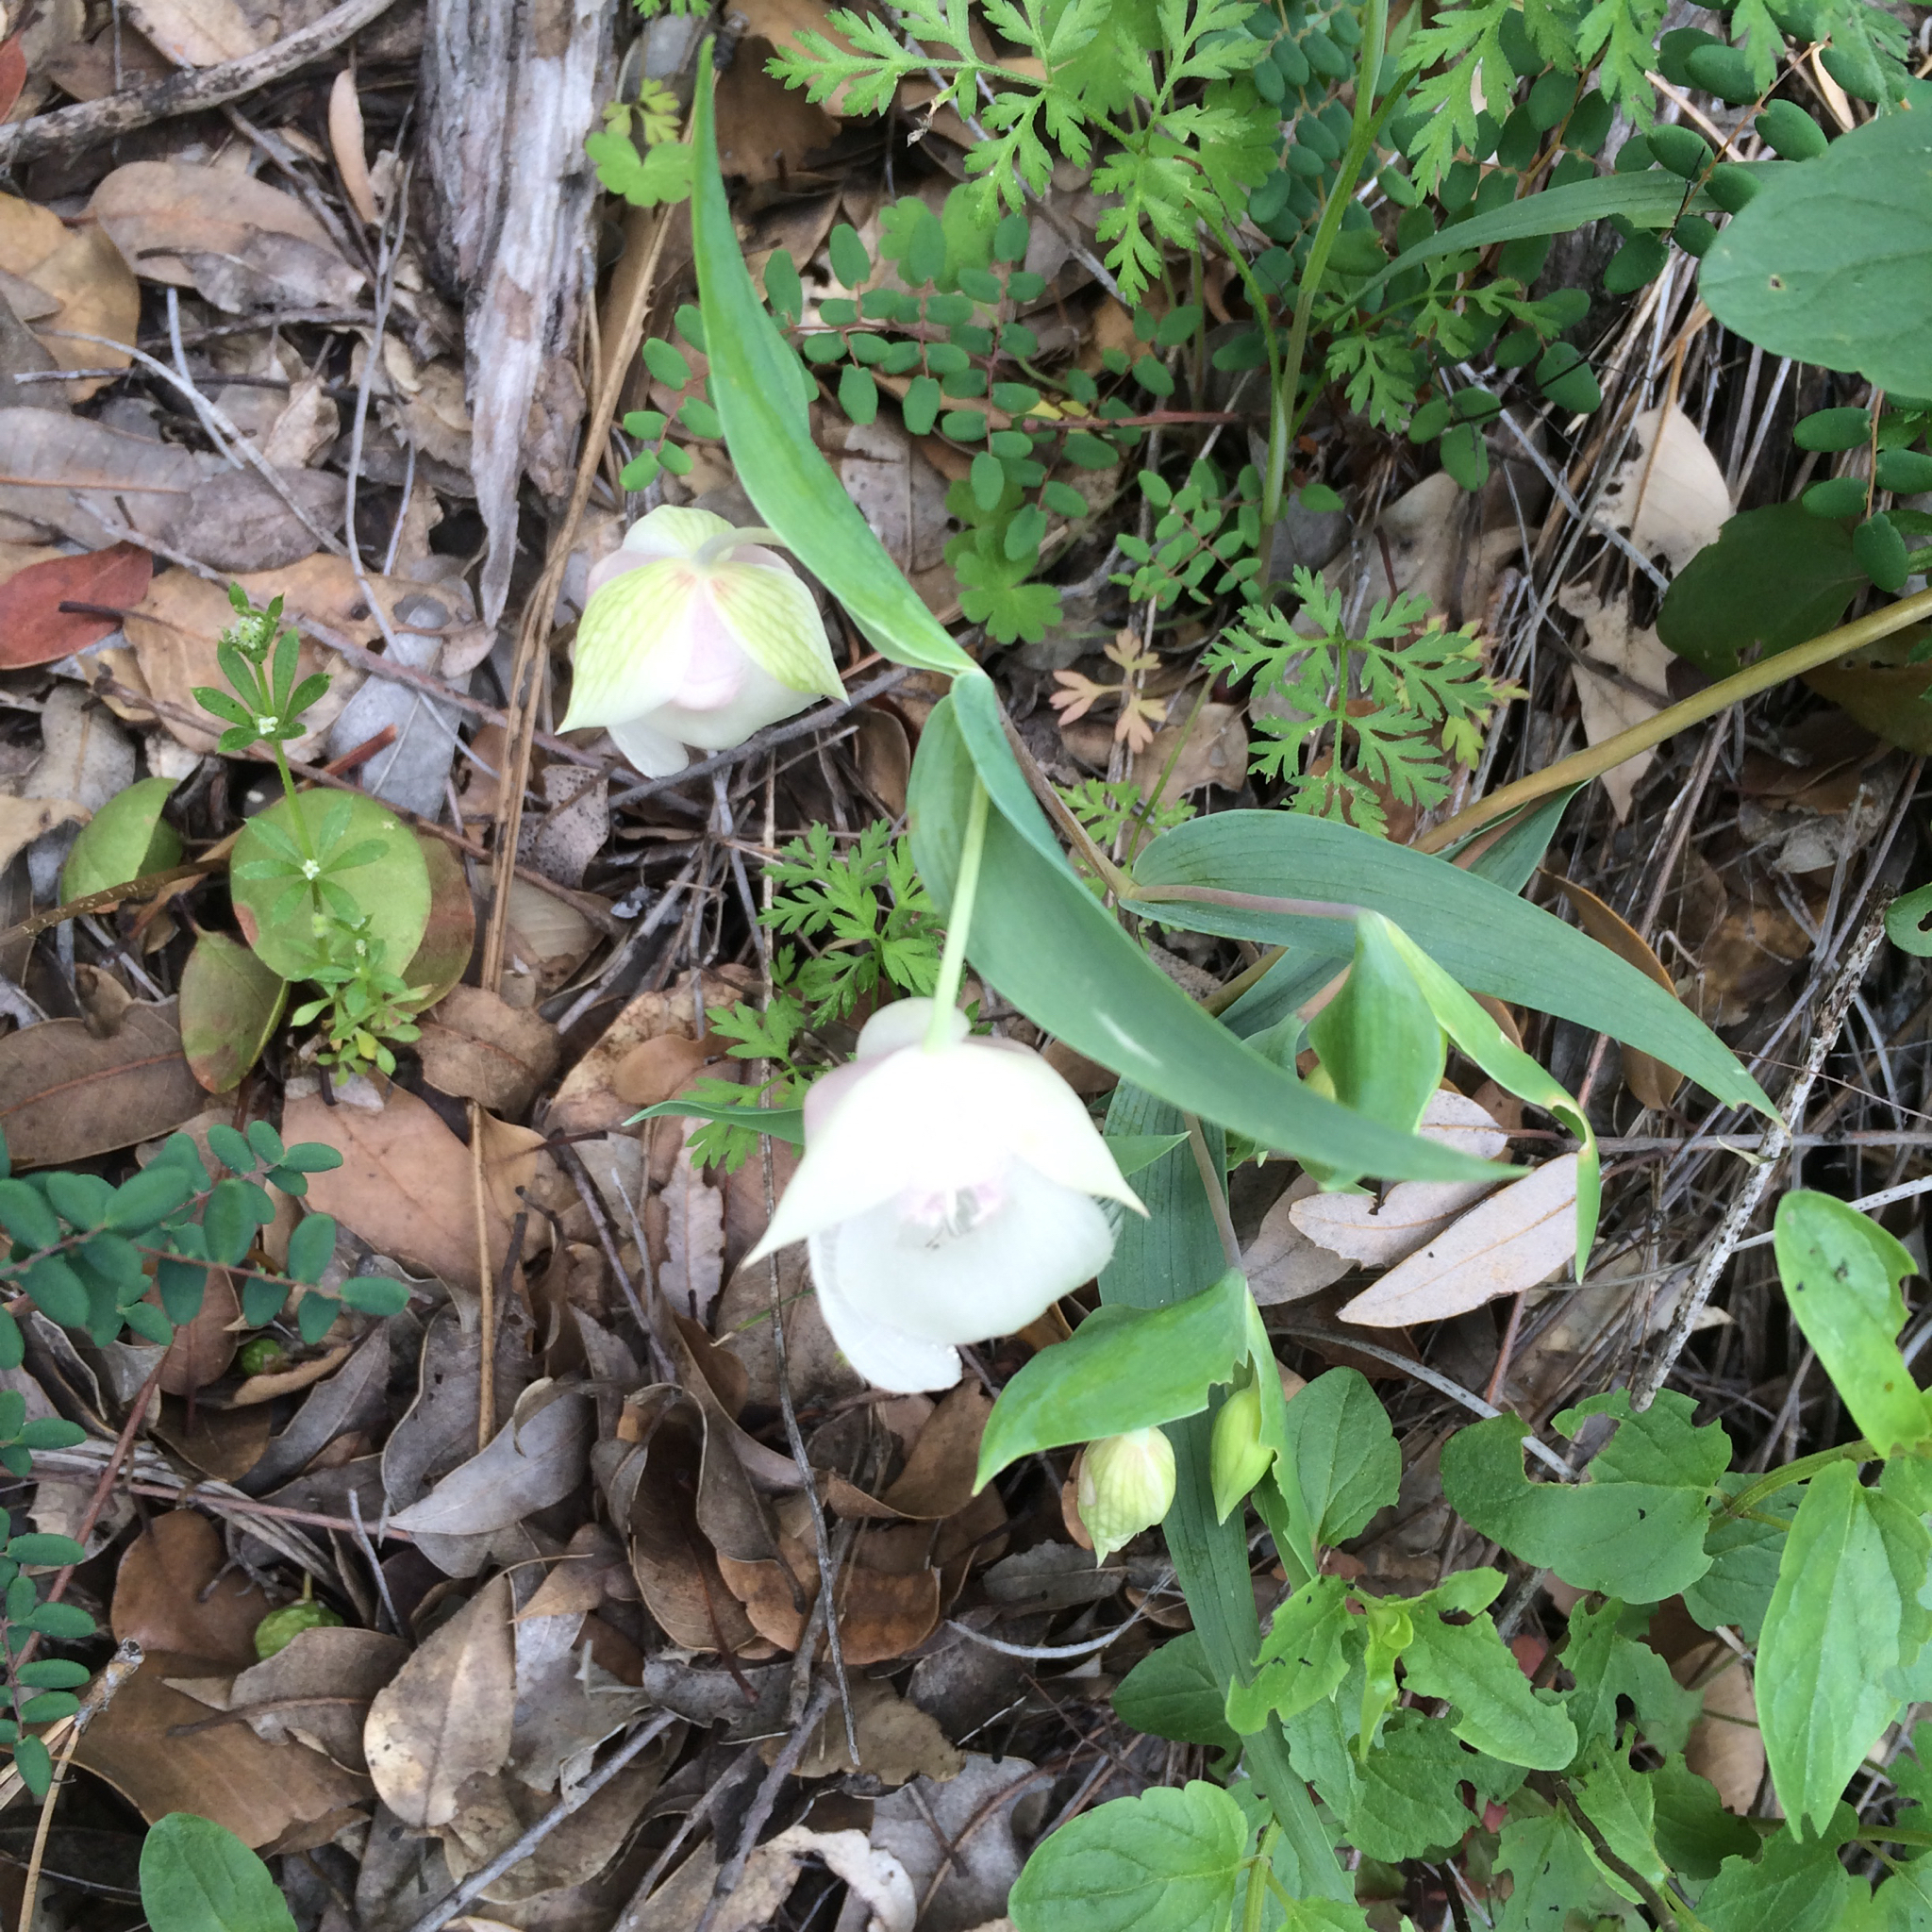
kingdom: Plantae
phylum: Tracheophyta
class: Liliopsida
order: Liliales
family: Liliaceae
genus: Calochortus
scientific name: Calochortus albus
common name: Fairy-lantern
